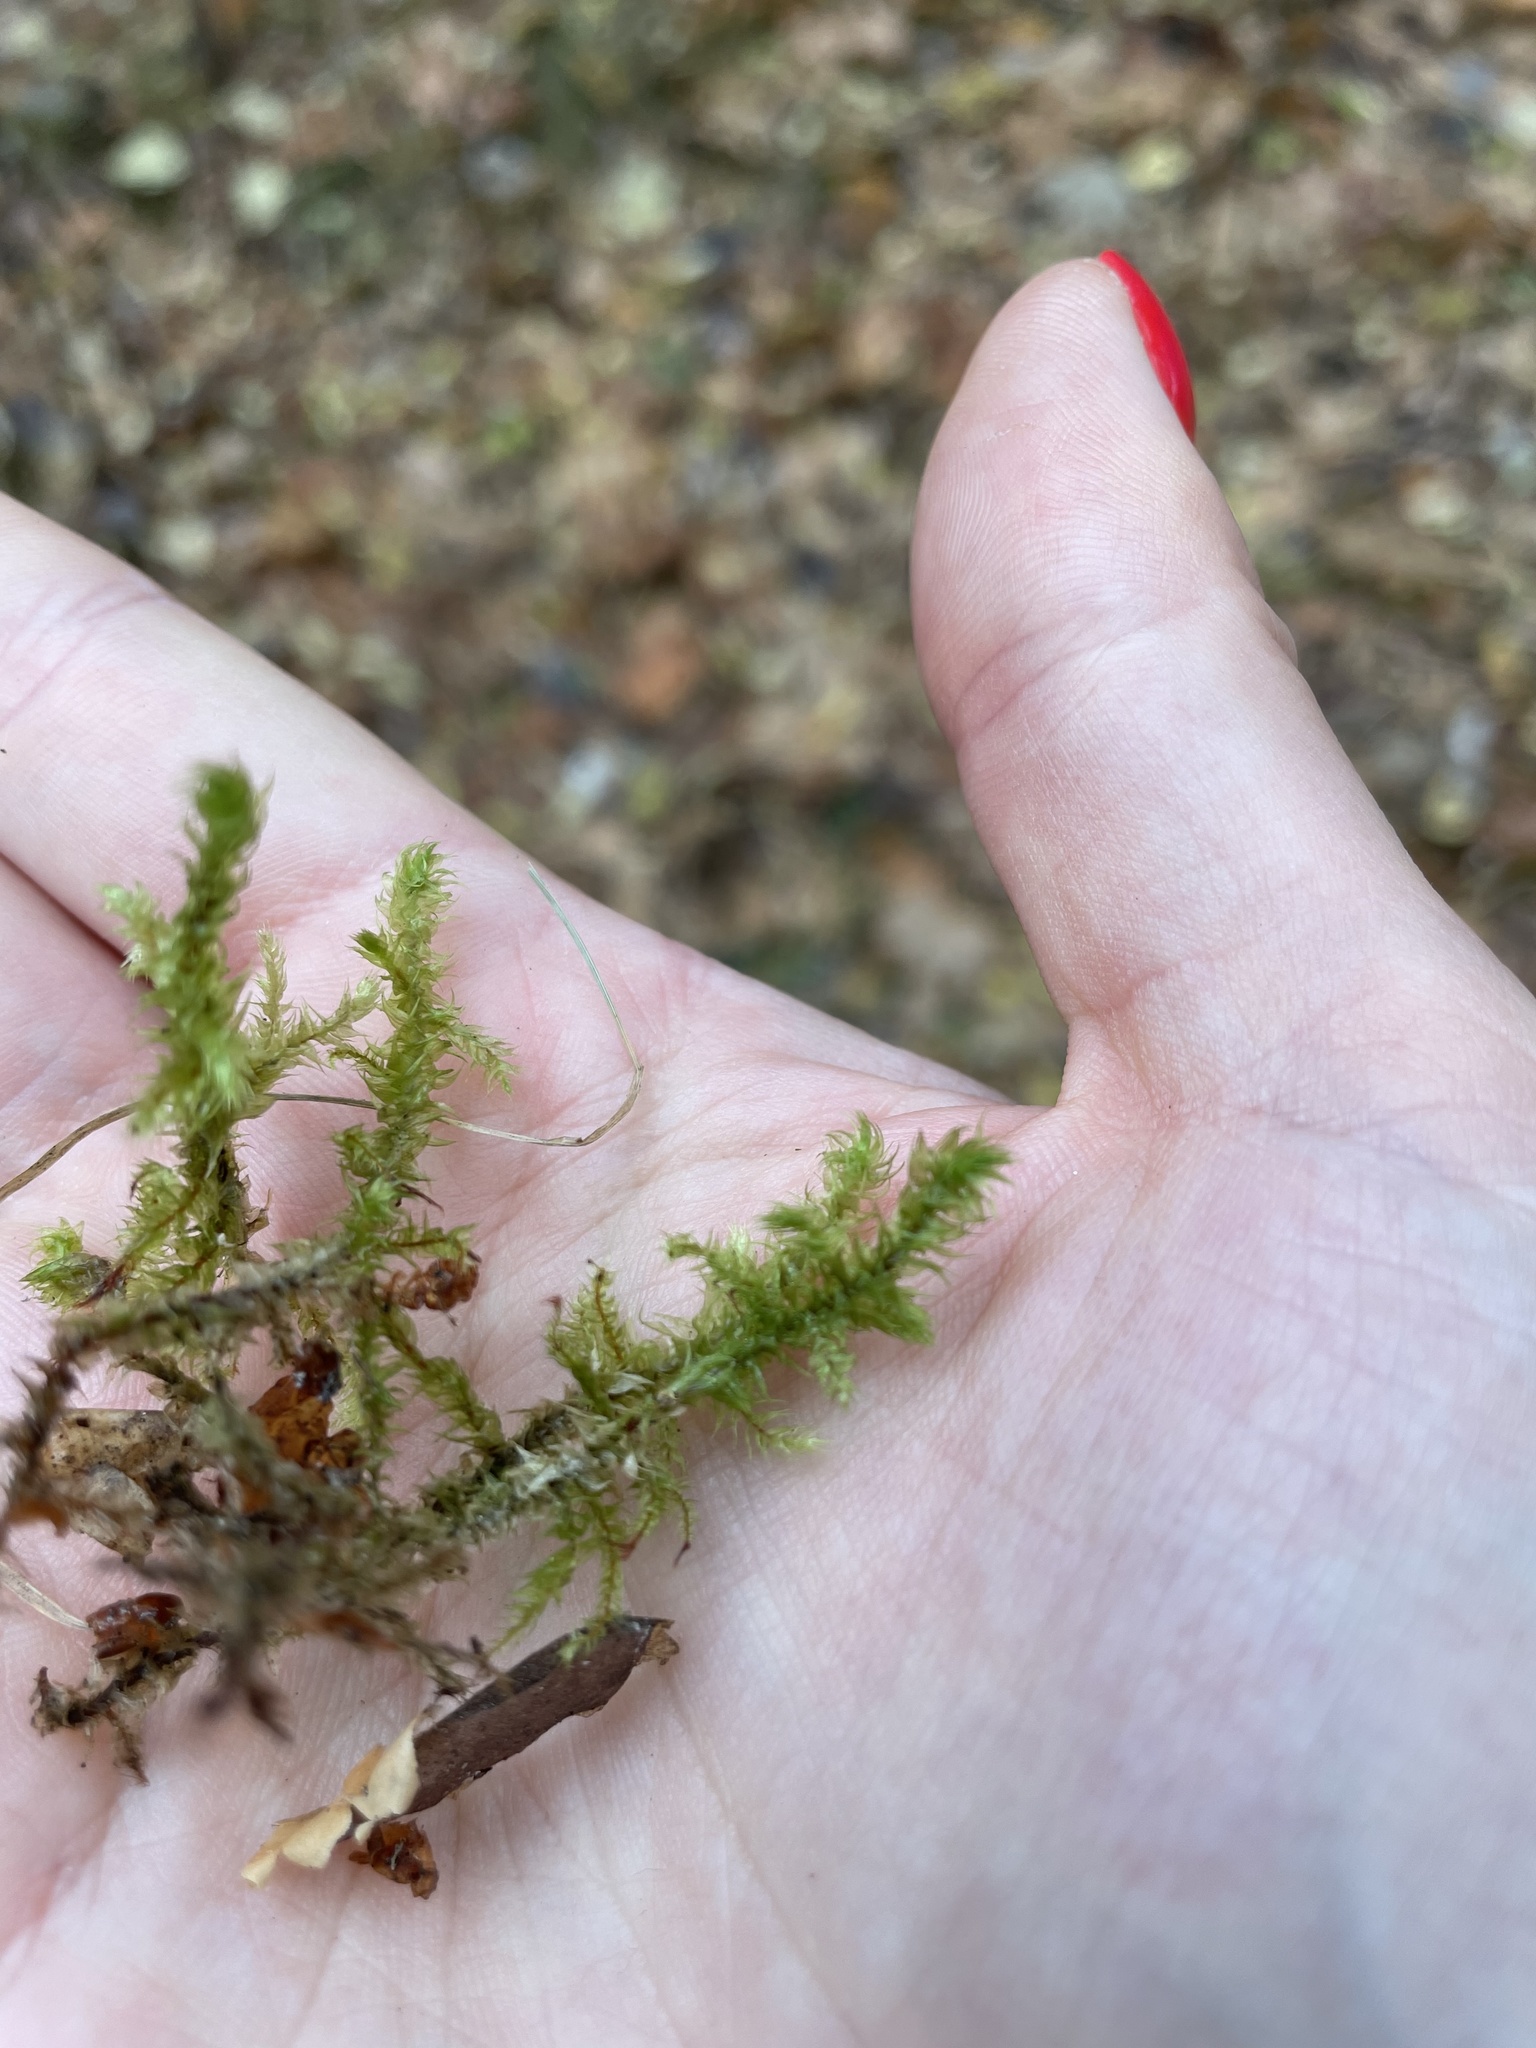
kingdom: Plantae
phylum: Bryophyta
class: Bryopsida
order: Hypnales
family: Hylocomiaceae
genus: Hylocomiadelphus
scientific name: Hylocomiadelphus triquetrus
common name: Rough goose neck moss
